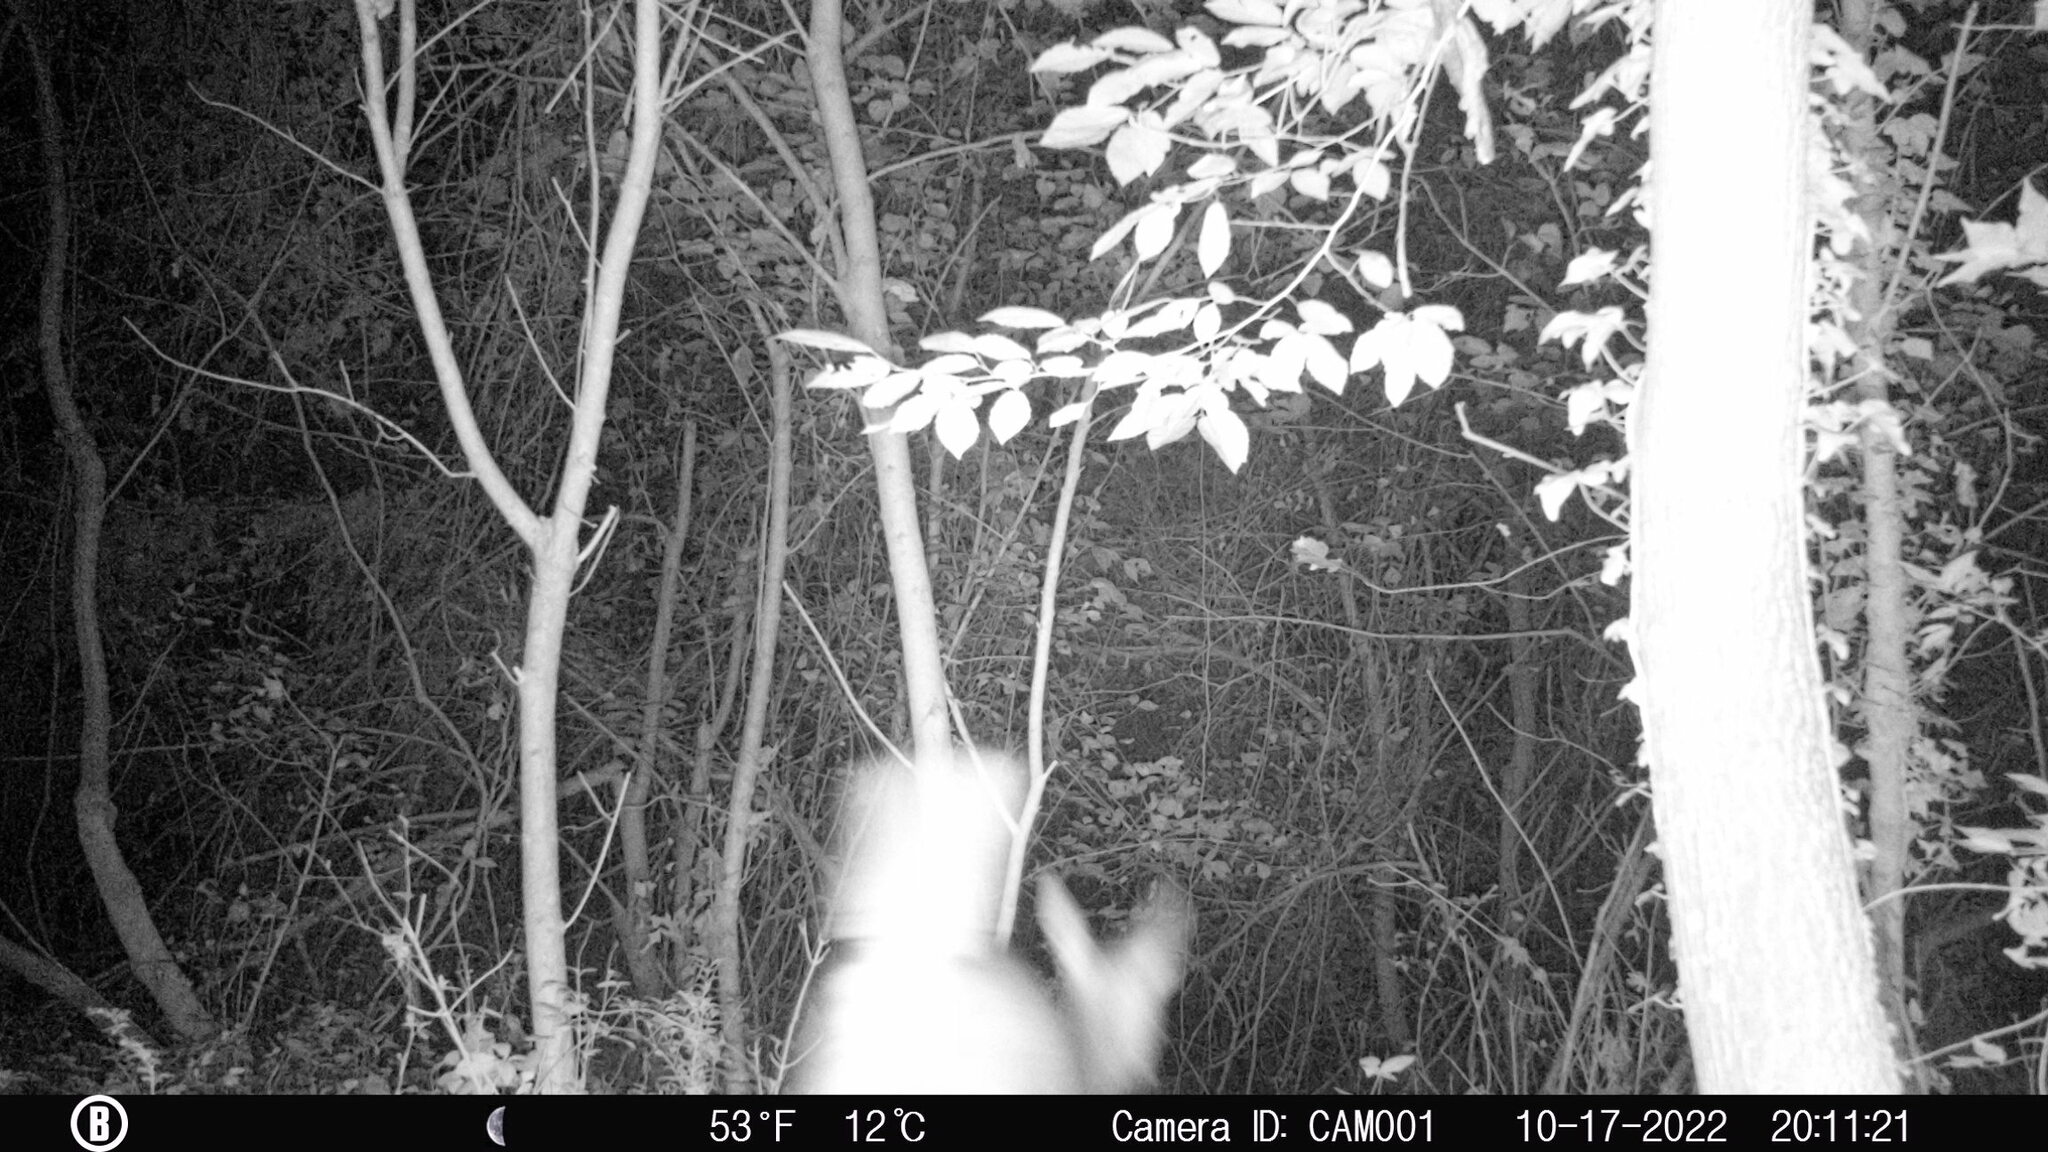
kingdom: Animalia
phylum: Chordata
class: Mammalia
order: Artiodactyla
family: Cervidae
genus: Odocoileus
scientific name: Odocoileus virginianus
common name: White-tailed deer
